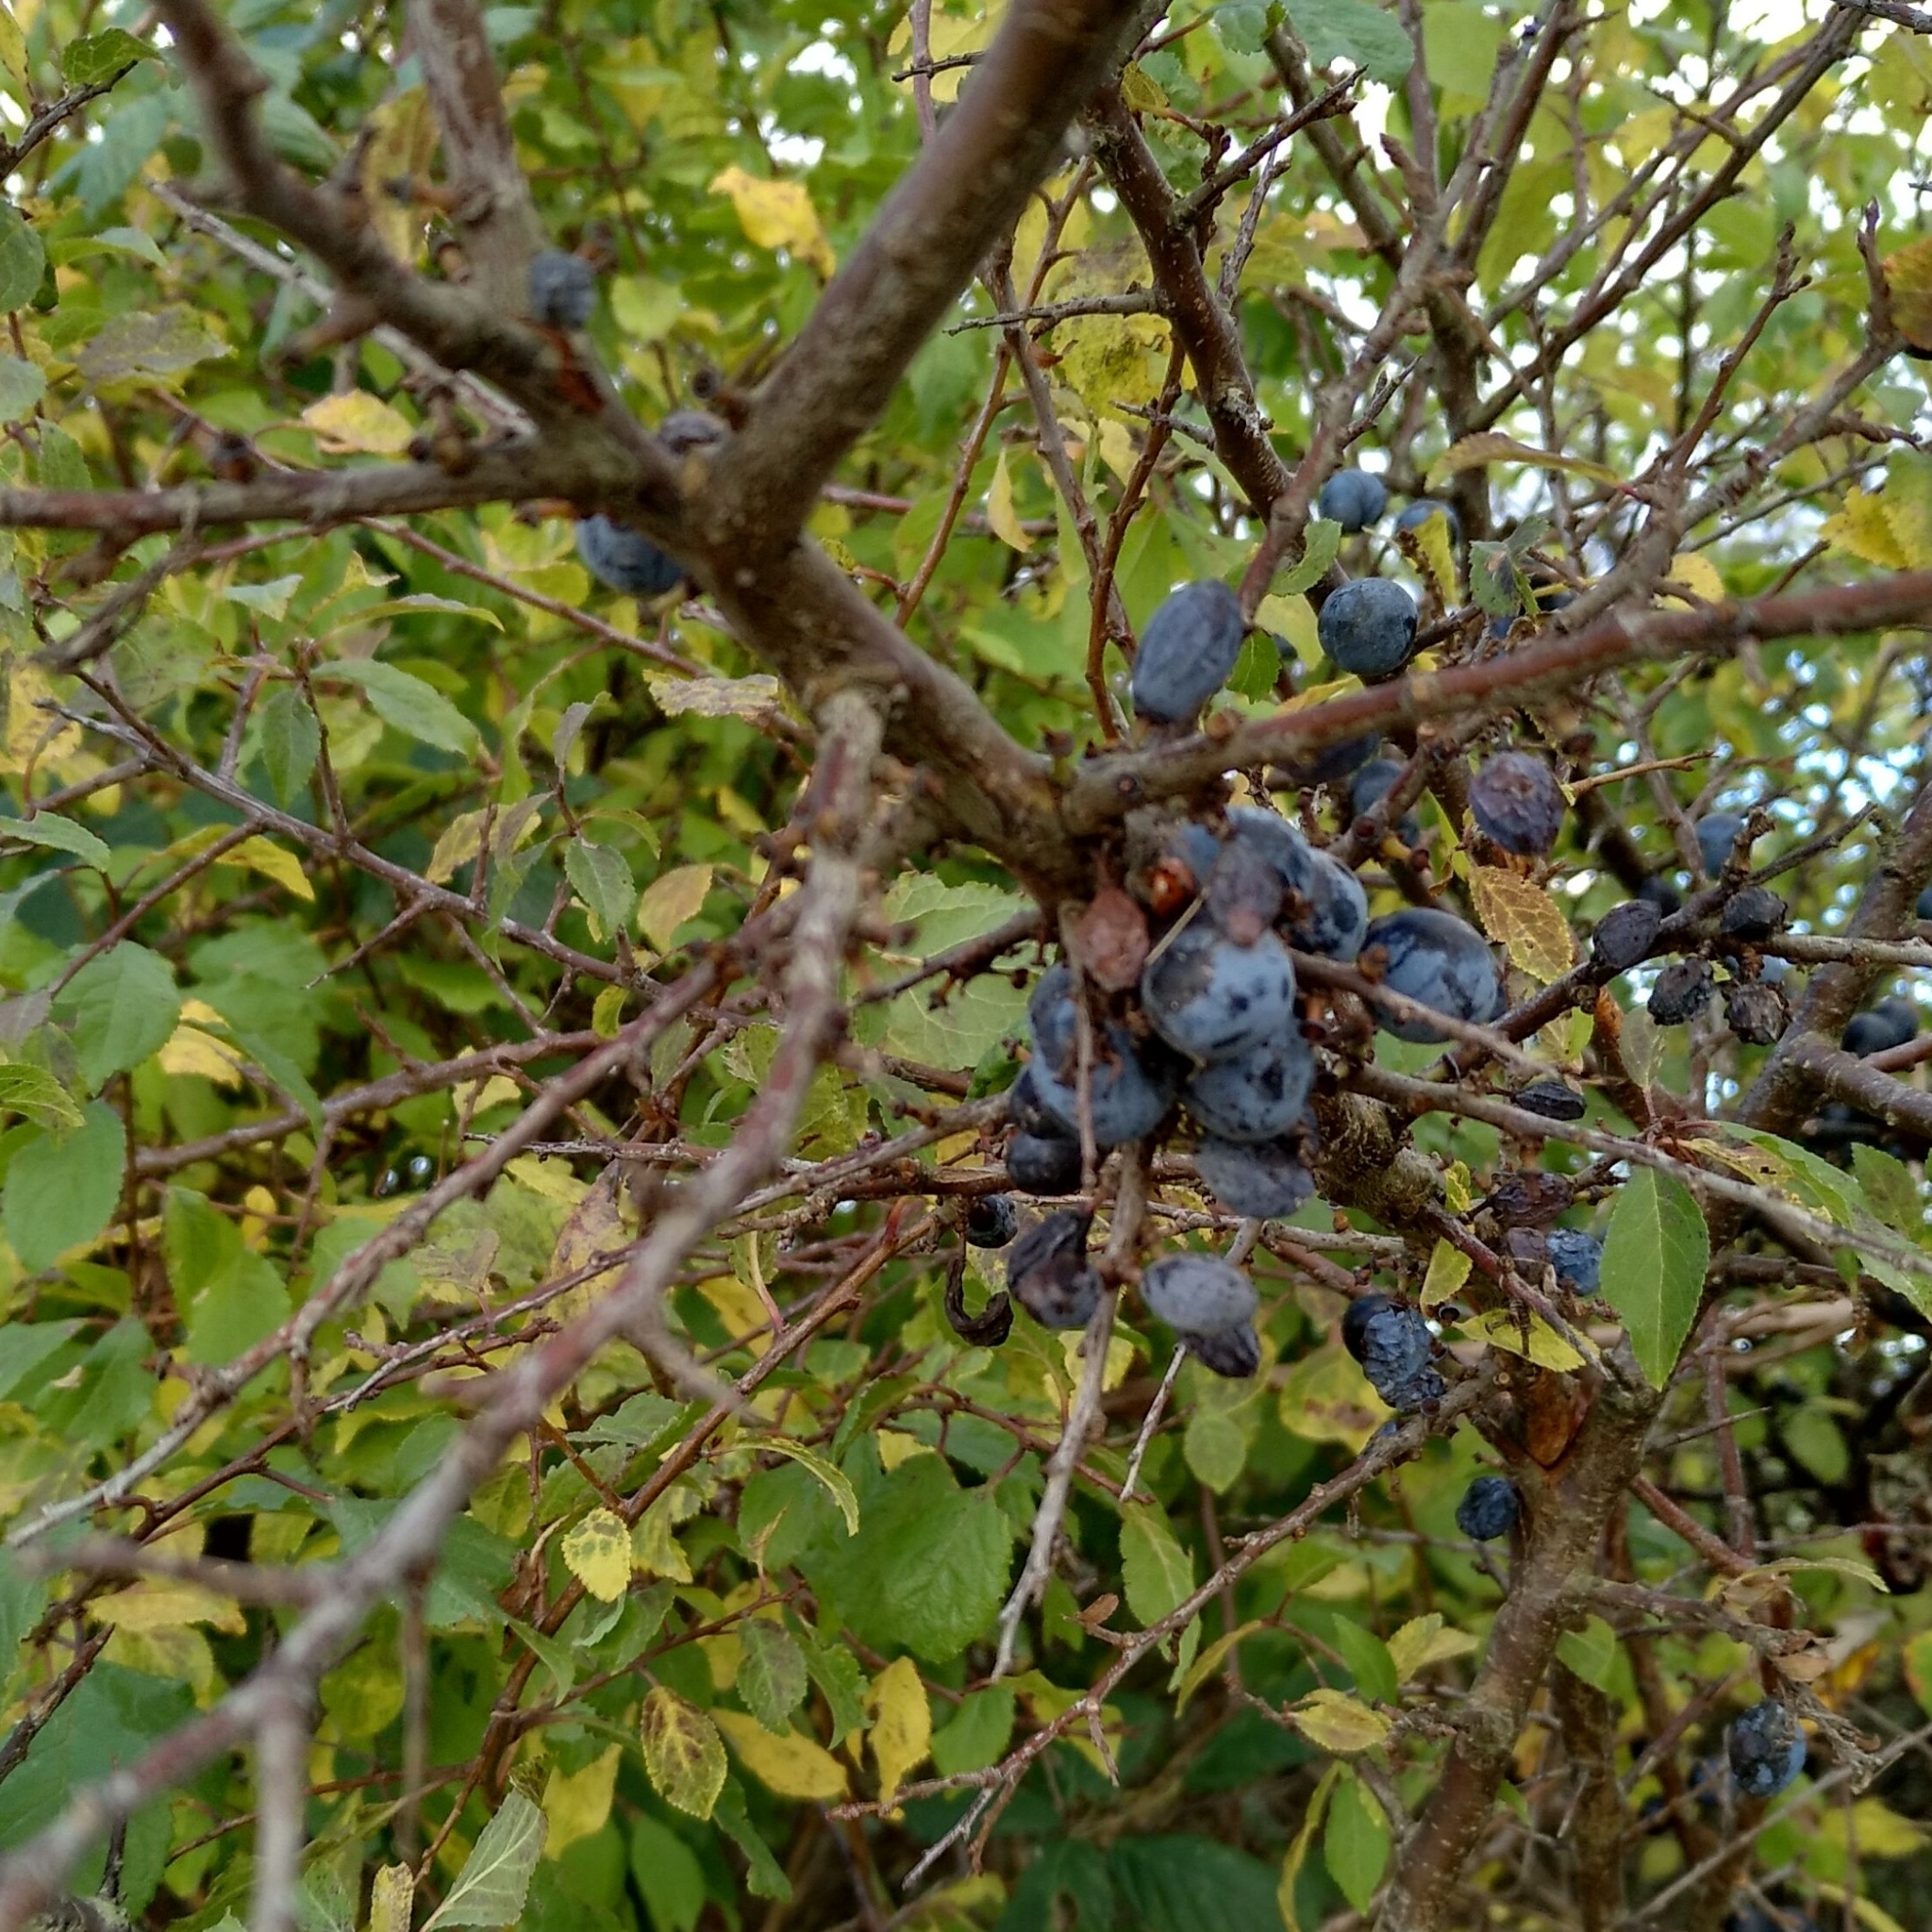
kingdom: Plantae
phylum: Tracheophyta
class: Magnoliopsida
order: Rosales
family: Rosaceae
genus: Prunus
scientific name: Prunus spinosa
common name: Blackthorn
